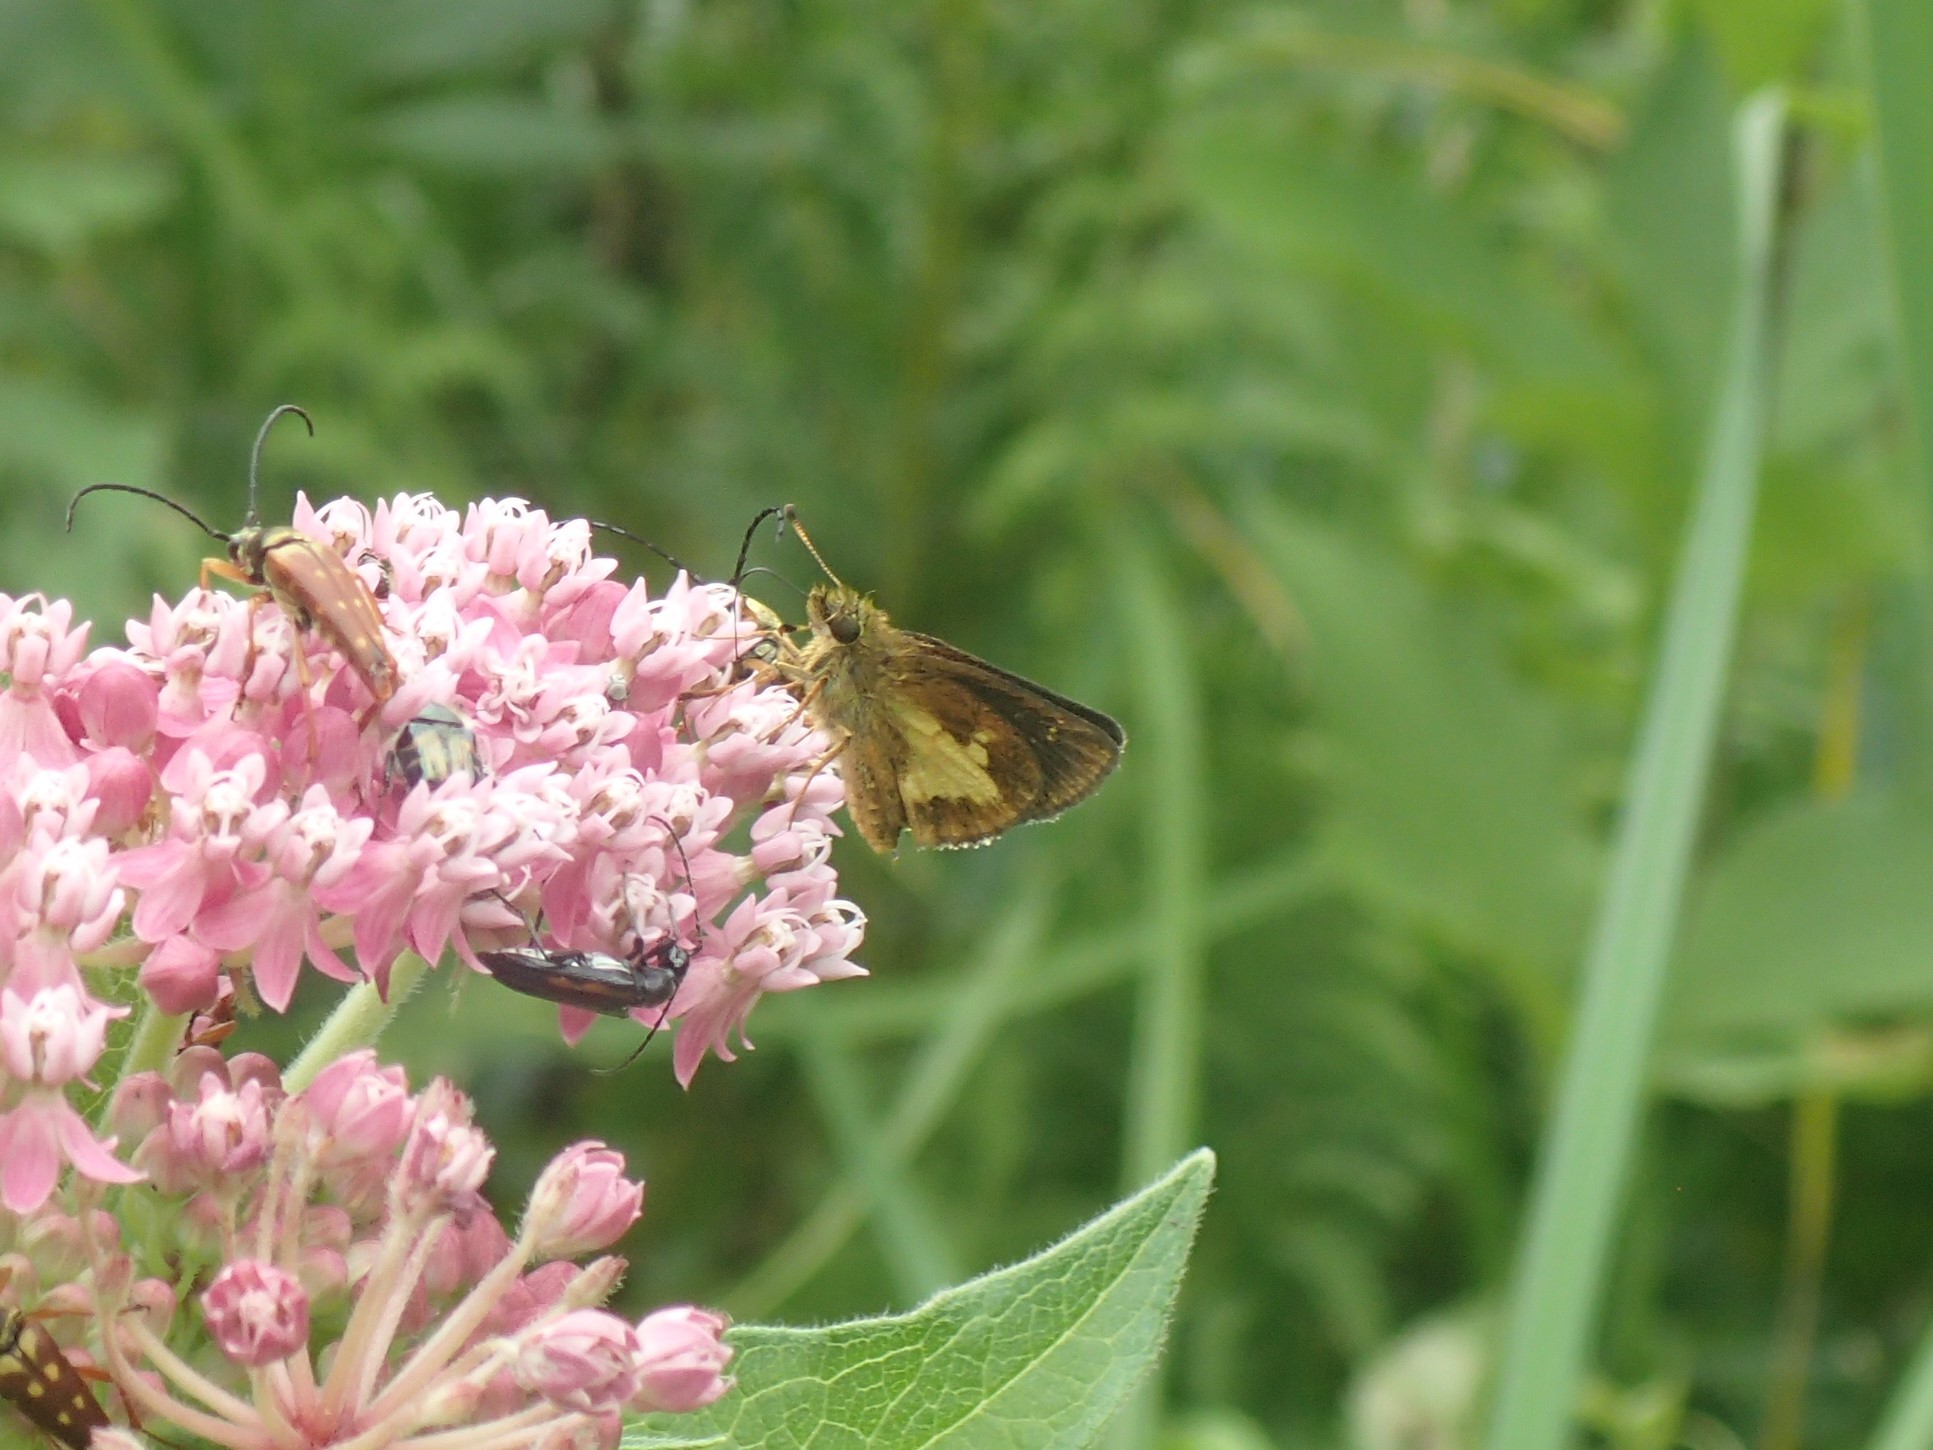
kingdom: Animalia
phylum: Arthropoda
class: Insecta
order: Lepidoptera
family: Hesperiidae
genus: Poanes
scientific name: Poanes massasoit
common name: Mulberrywing
